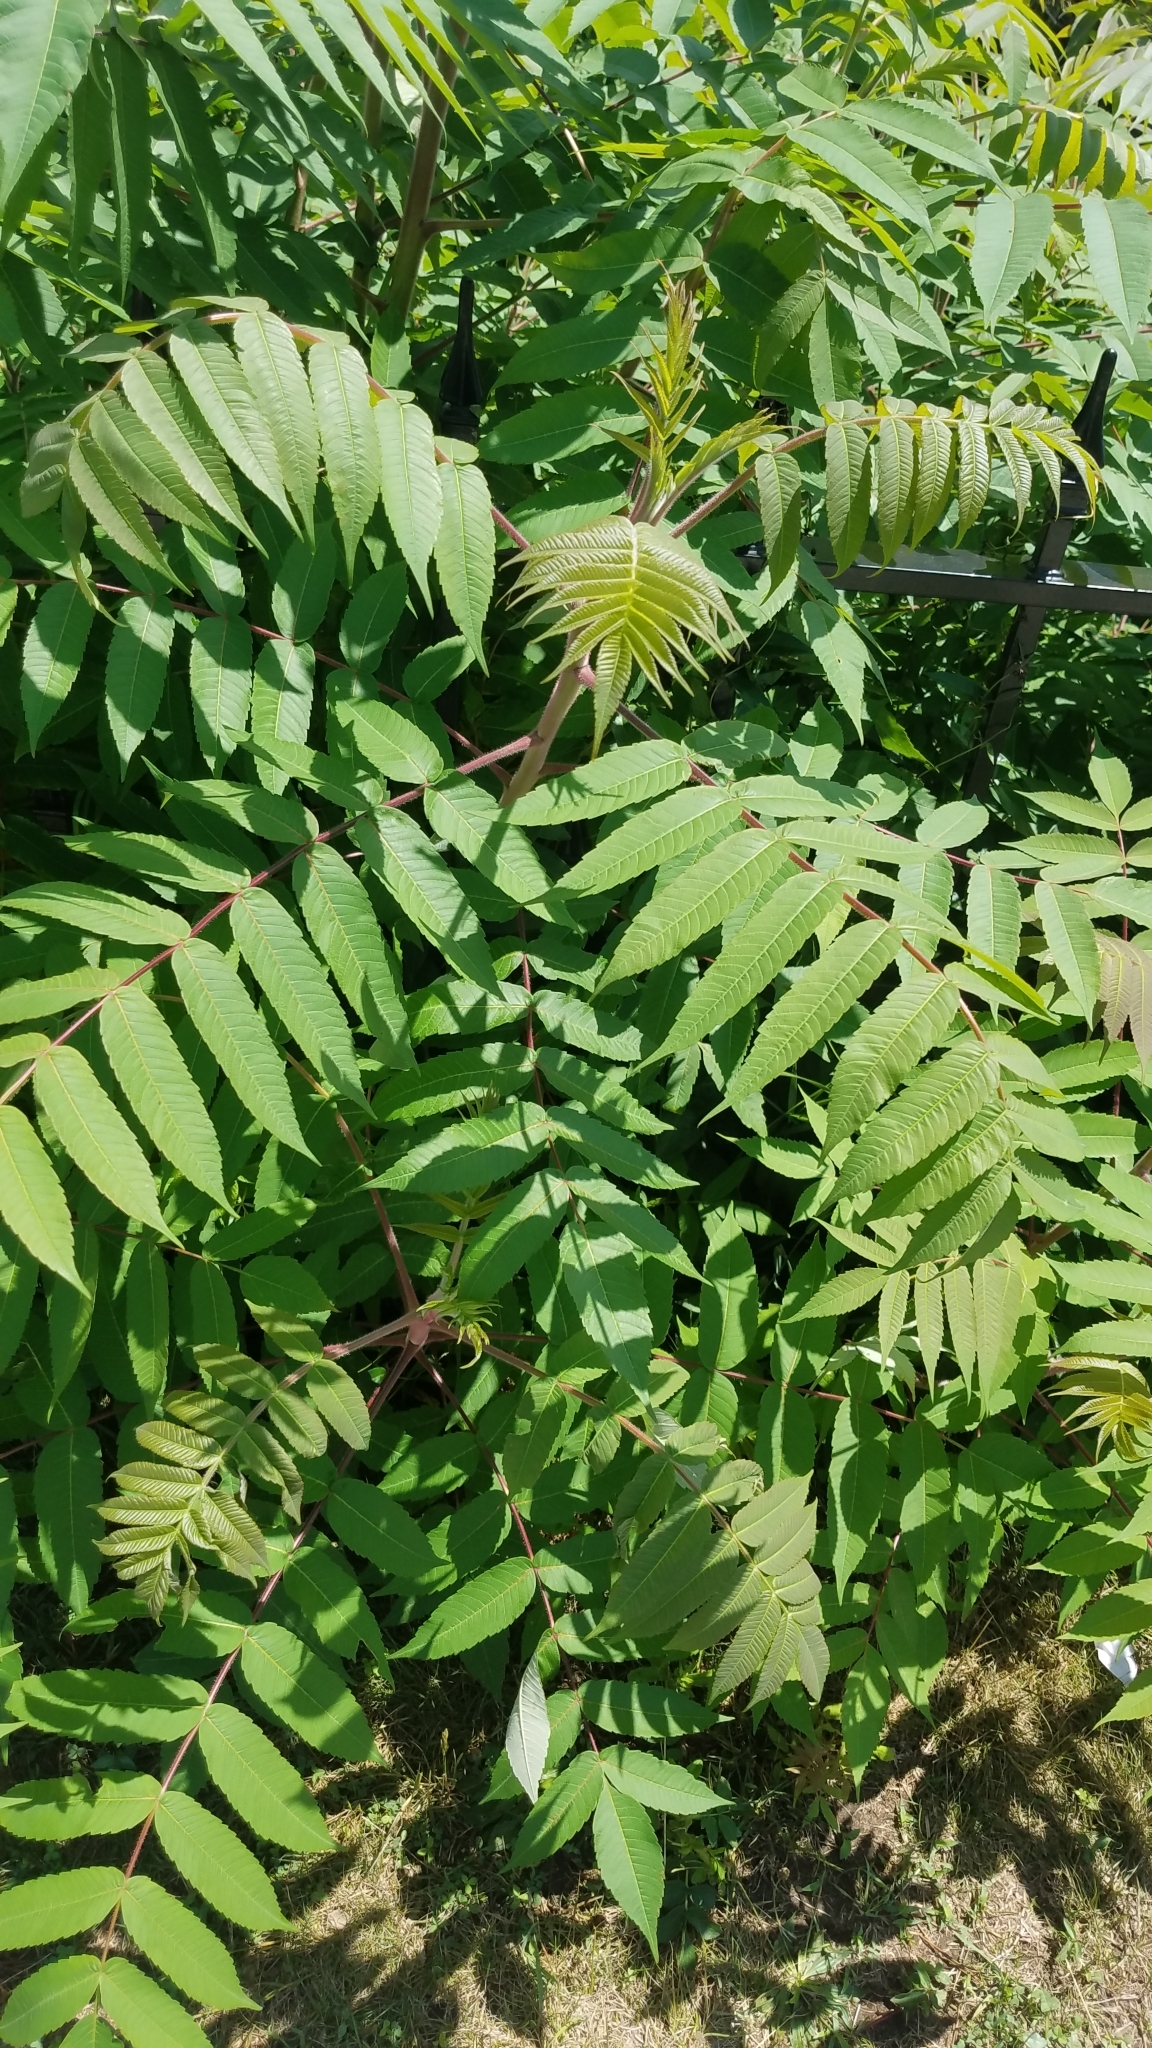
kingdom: Plantae
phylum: Tracheophyta
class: Magnoliopsida
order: Sapindales
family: Anacardiaceae
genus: Rhus
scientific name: Rhus typhina
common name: Staghorn sumac
